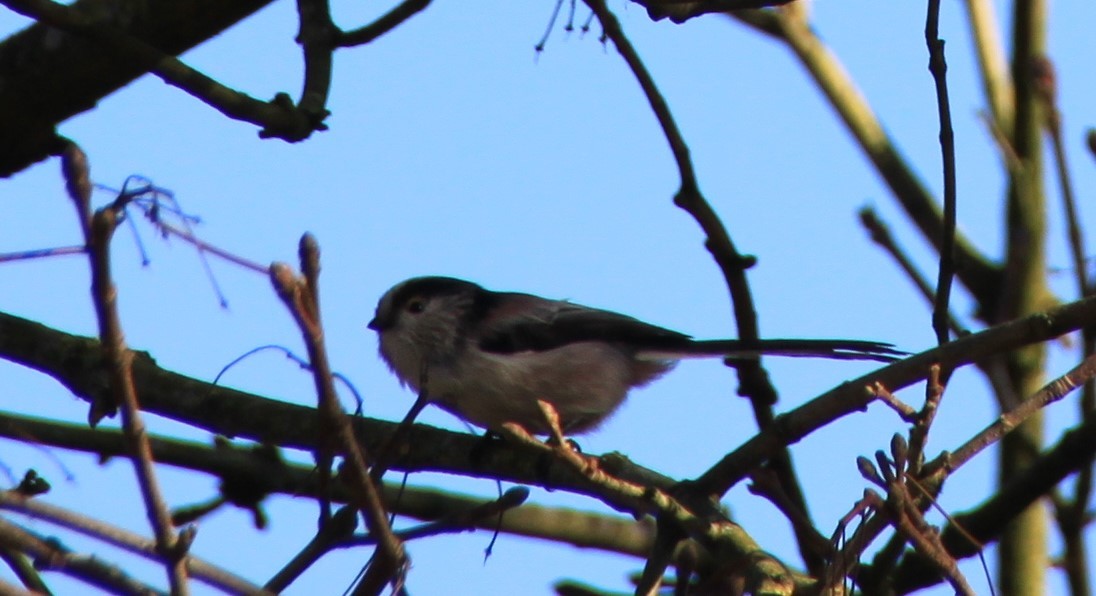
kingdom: Animalia
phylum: Chordata
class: Aves
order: Passeriformes
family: Aegithalidae
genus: Aegithalos
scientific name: Aegithalos caudatus
